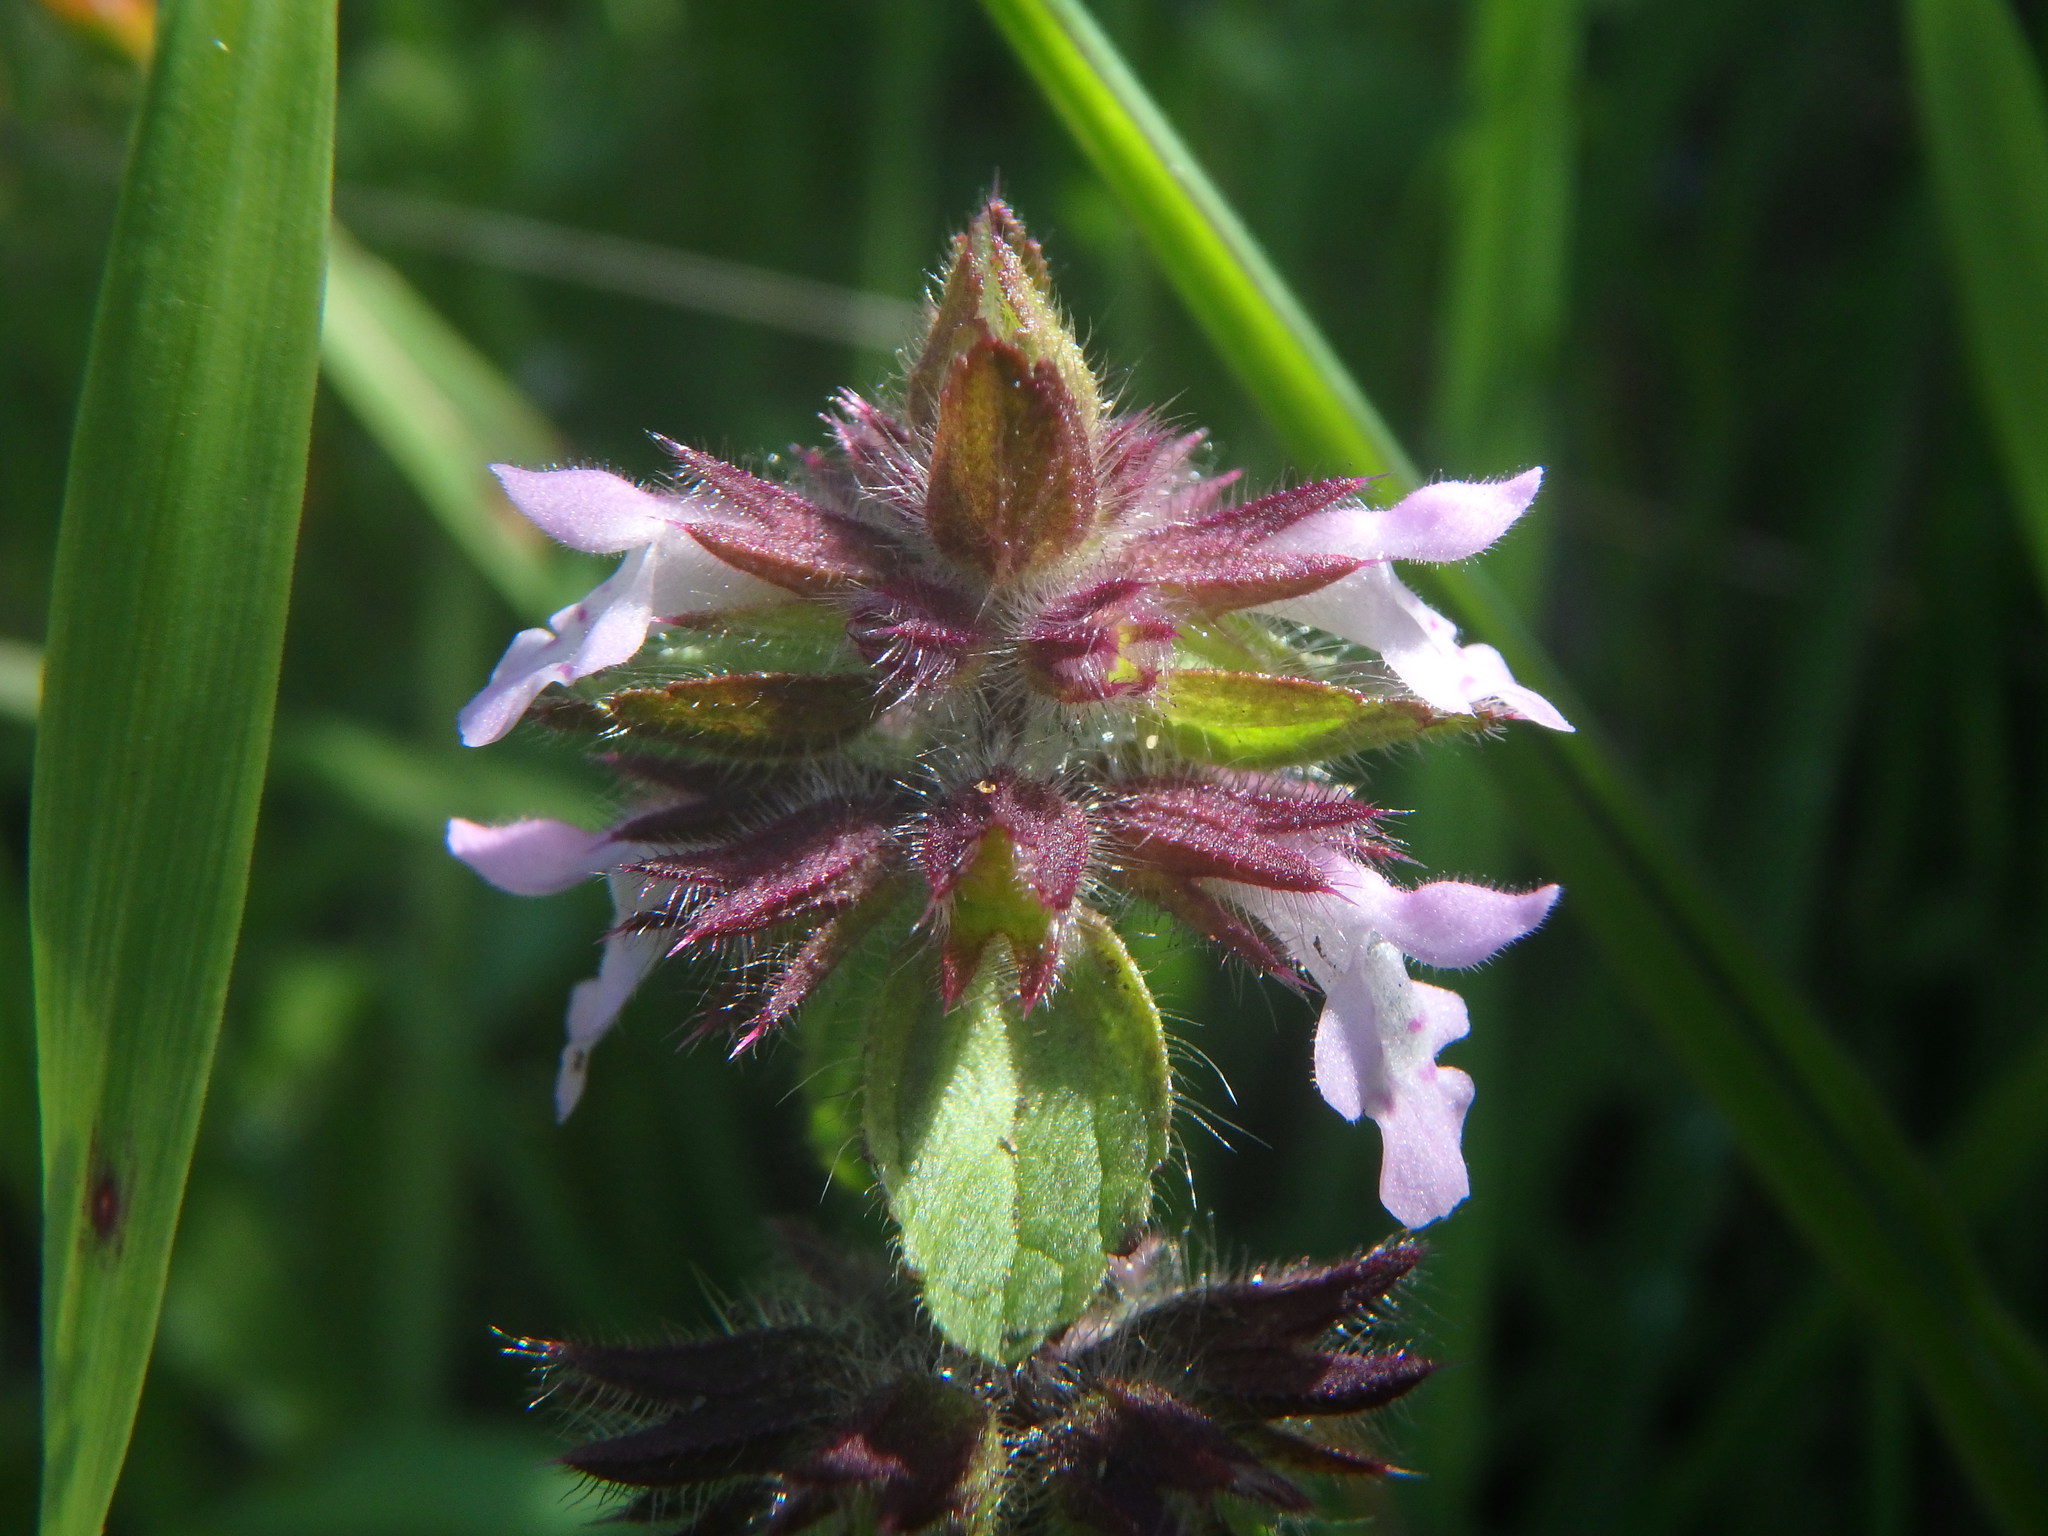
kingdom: Plantae
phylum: Tracheophyta
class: Magnoliopsida
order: Lamiales
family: Lamiaceae
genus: Stachys
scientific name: Stachys arvensis
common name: Field woundwort
